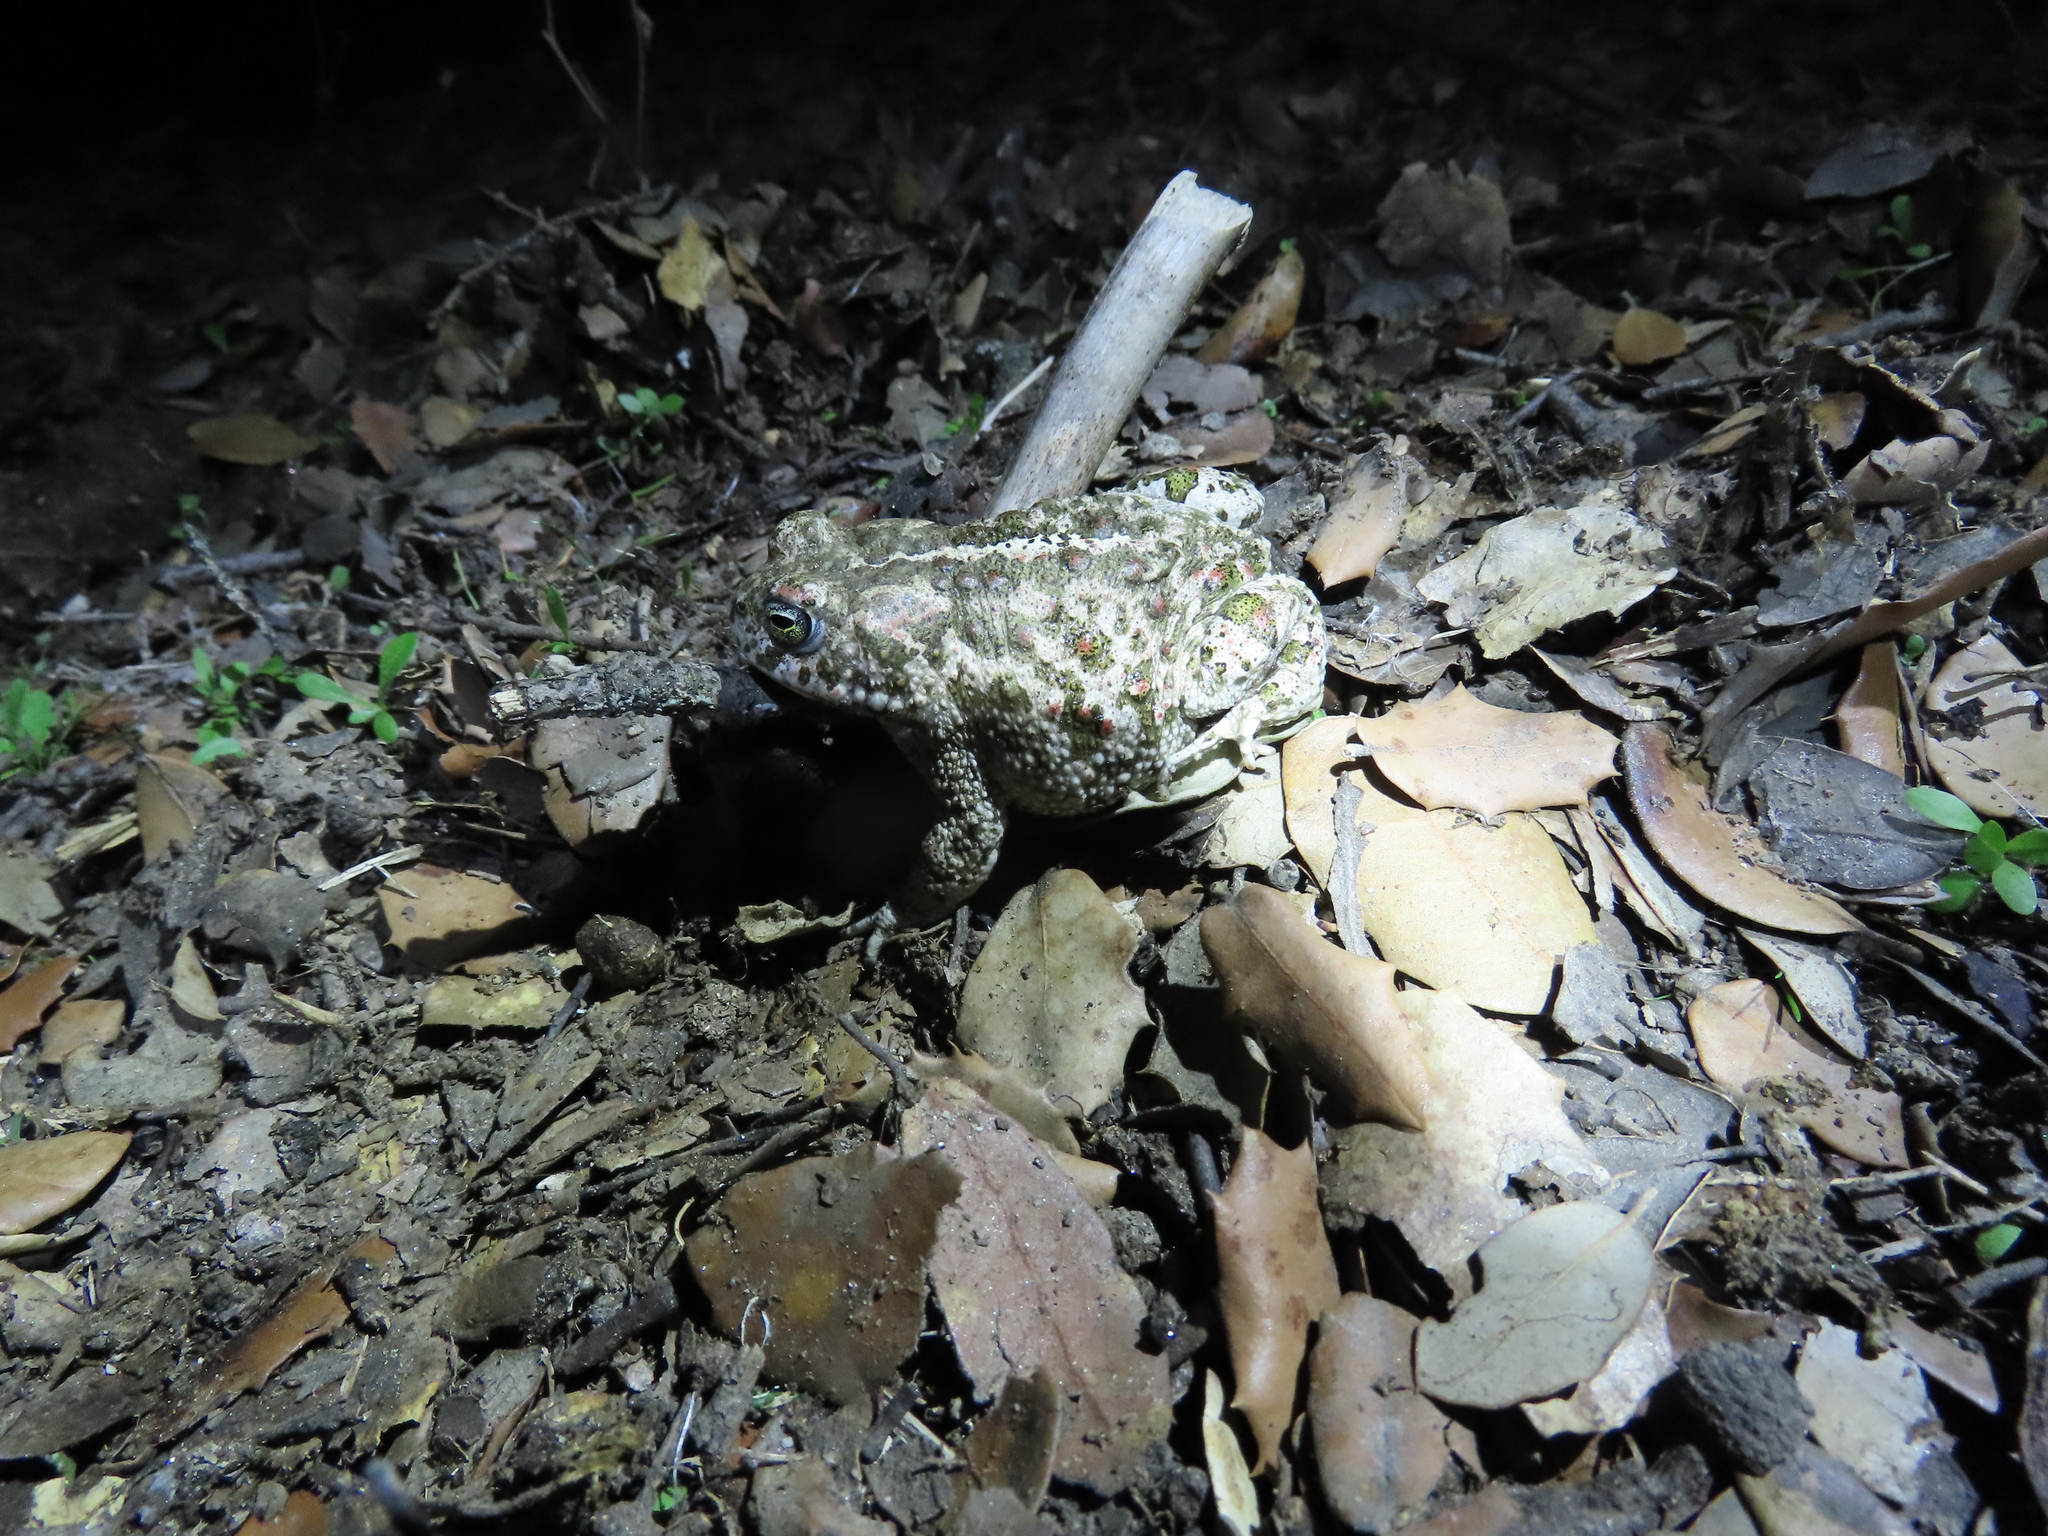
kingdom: Animalia
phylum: Chordata
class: Amphibia
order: Anura
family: Bufonidae
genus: Epidalea
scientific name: Epidalea calamita
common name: Natterjack toad
